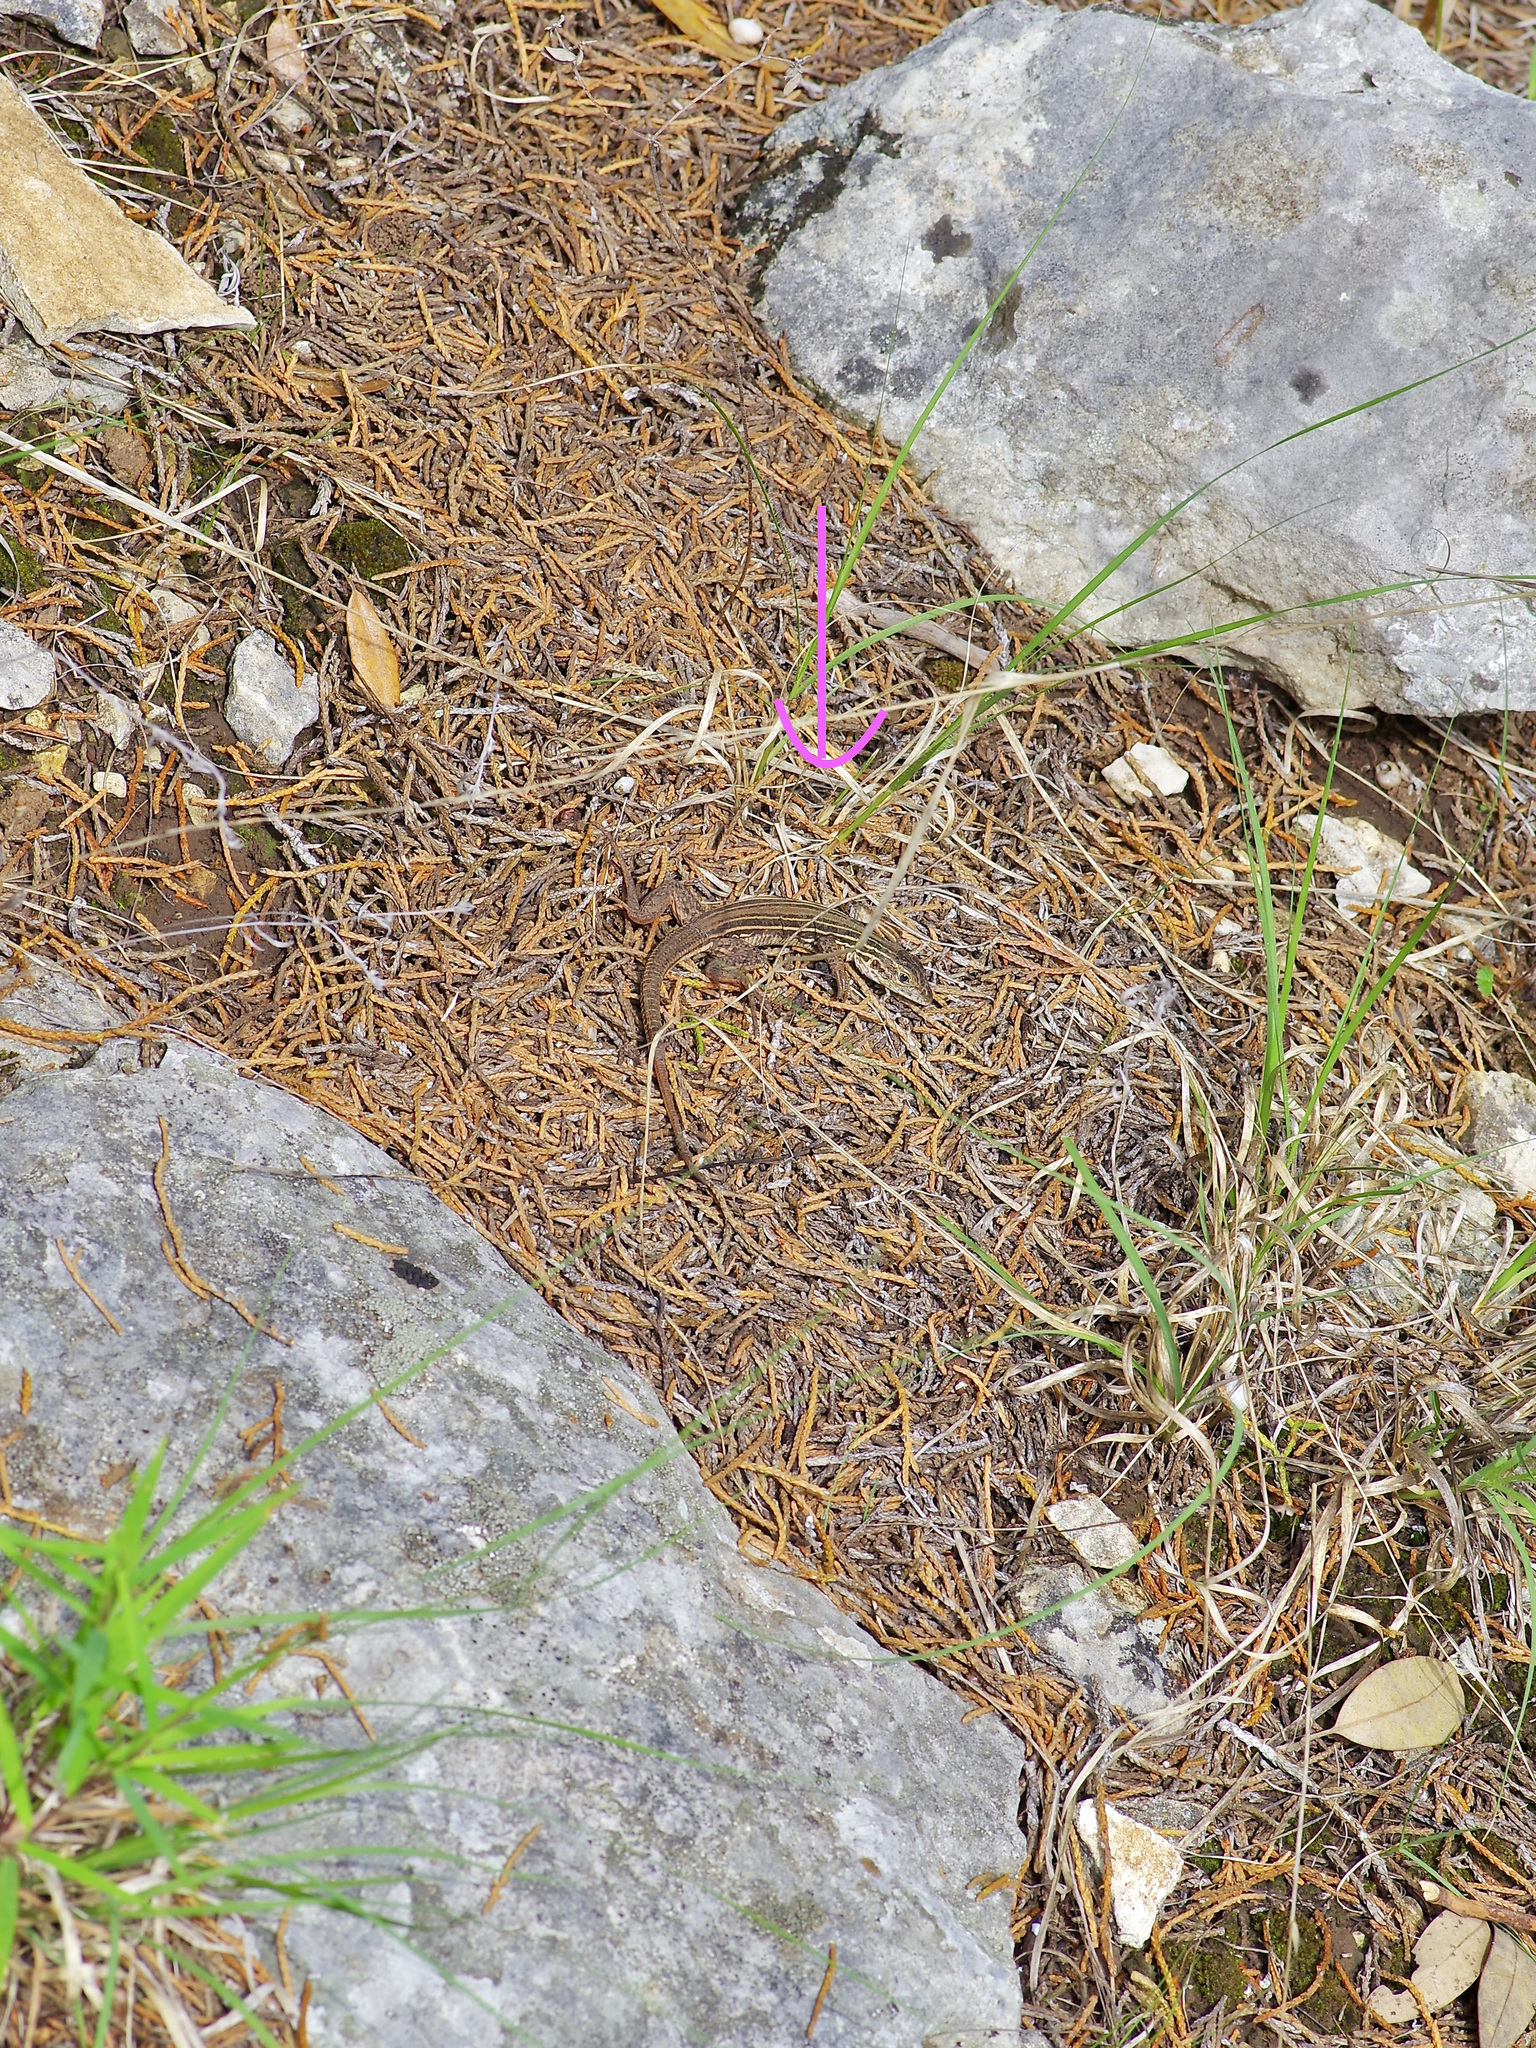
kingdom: Animalia
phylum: Chordata
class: Squamata
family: Teiidae
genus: Aspidoscelis
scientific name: Aspidoscelis gularis
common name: Eastern spotted whiptail
